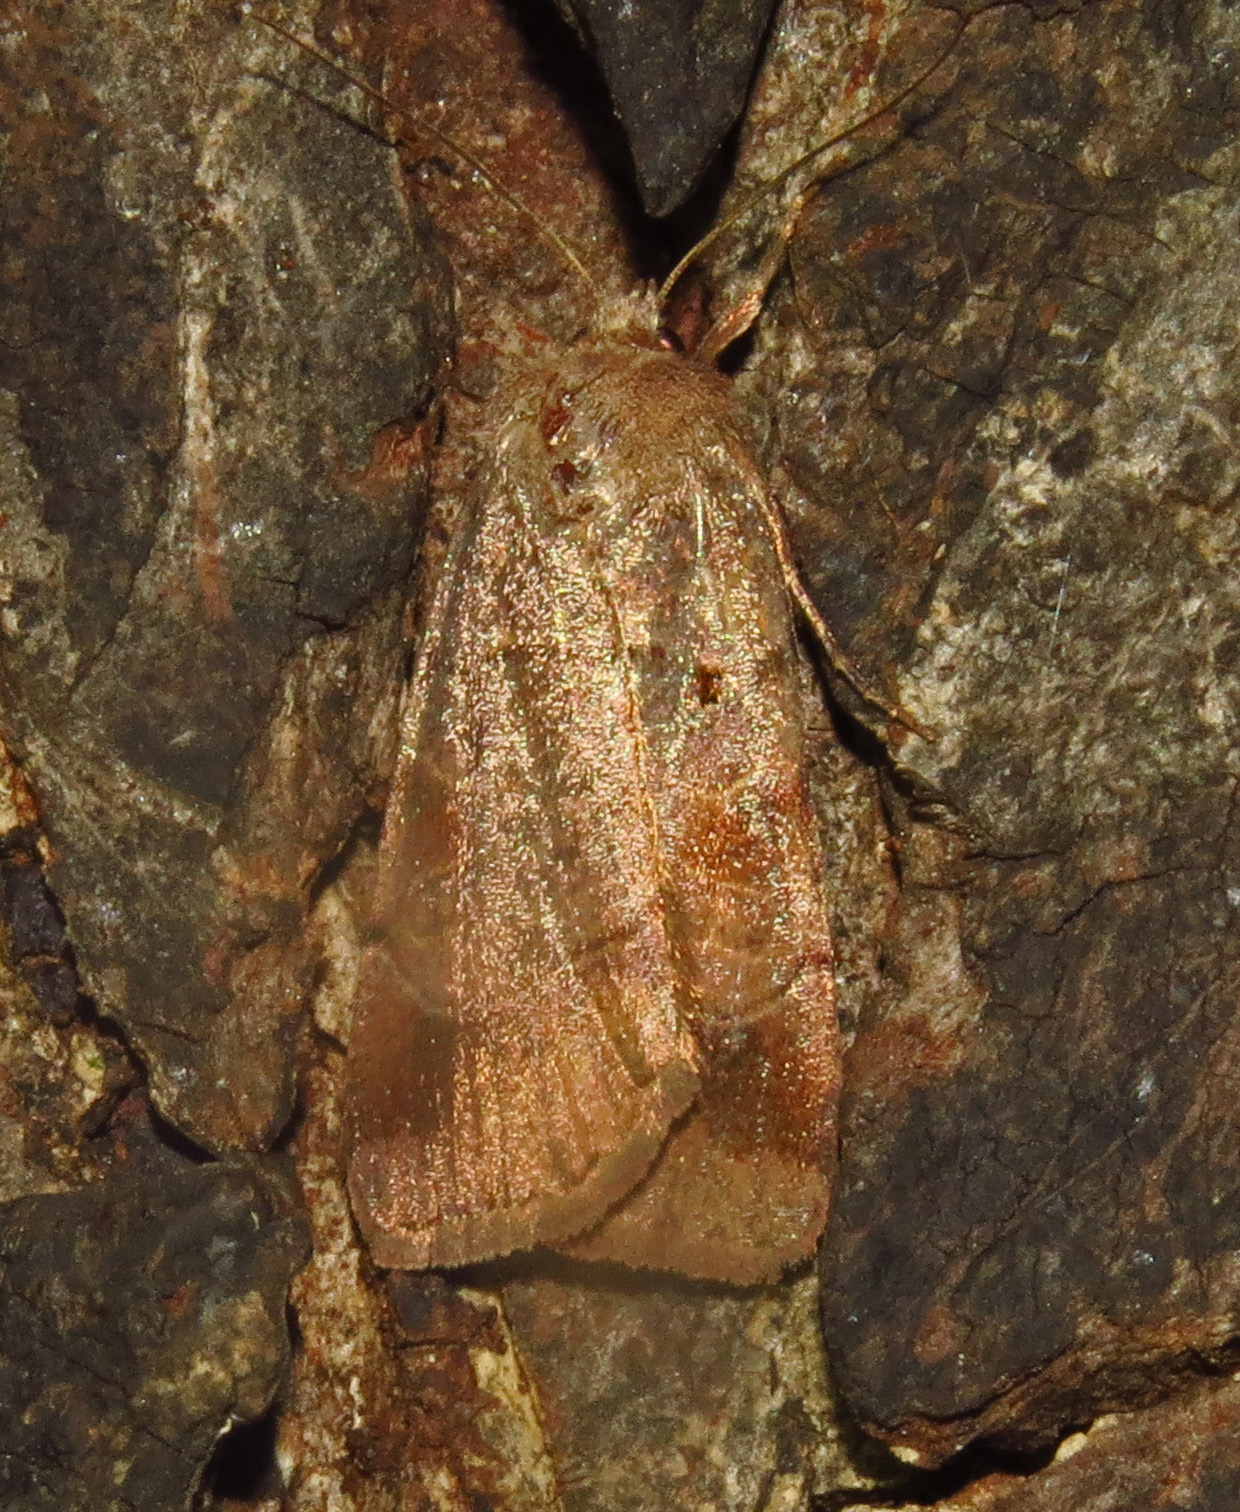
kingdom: Animalia
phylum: Arthropoda
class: Insecta
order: Lepidoptera
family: Noctuidae
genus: Agnorisma
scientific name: Agnorisma badinodis
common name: Pale-banded dart
